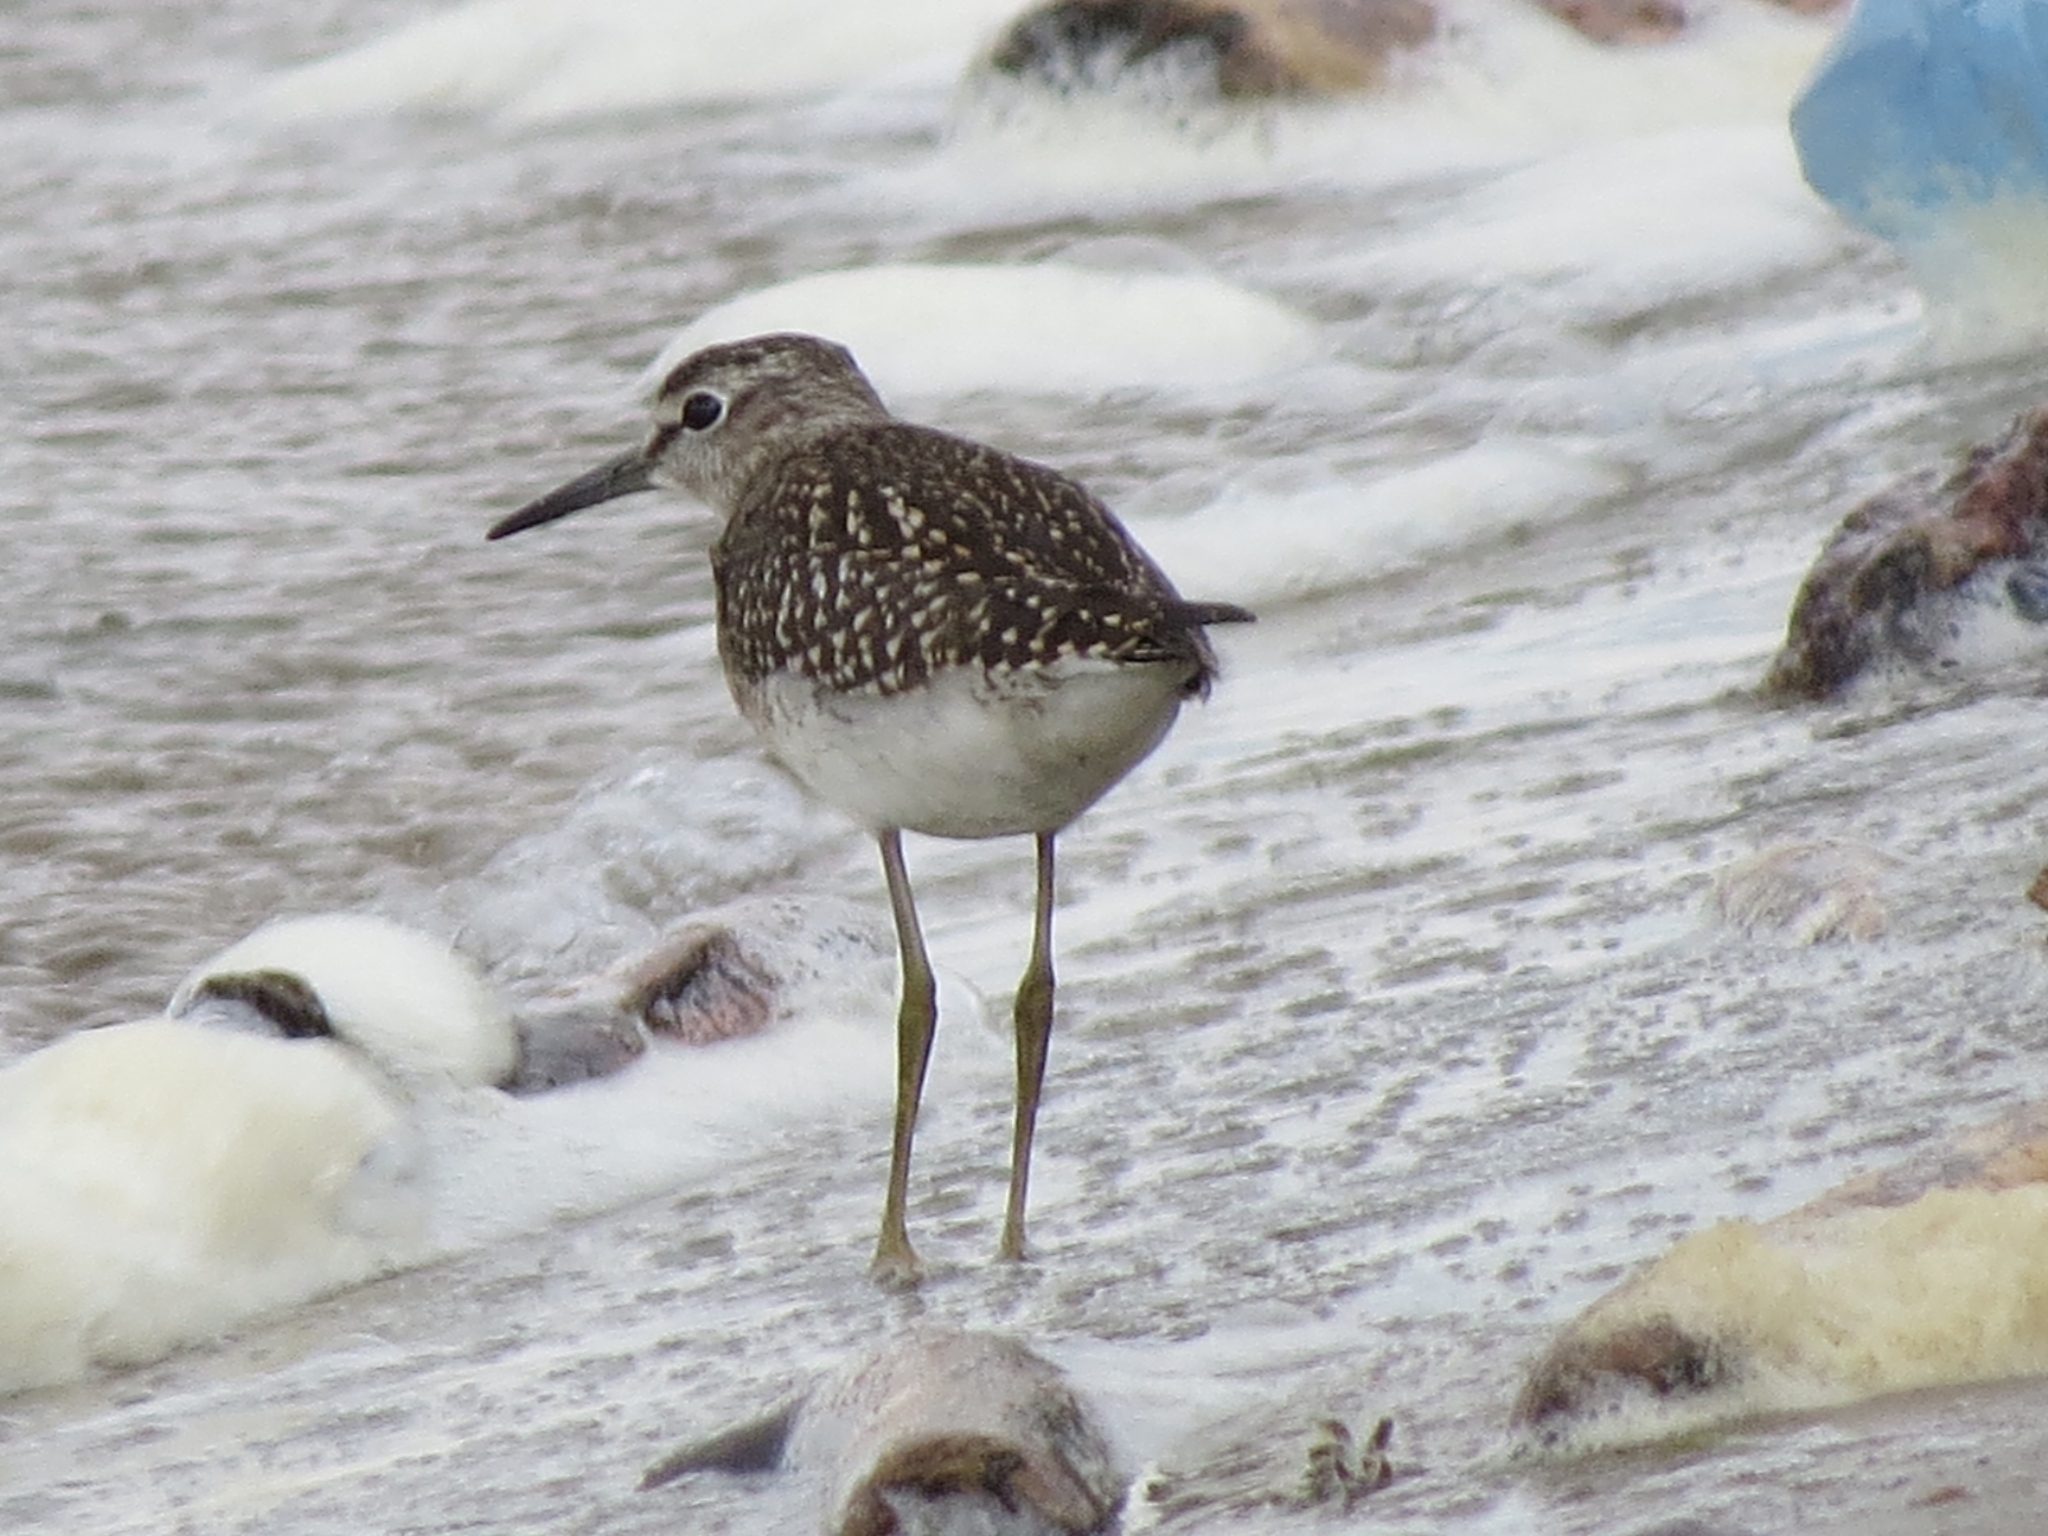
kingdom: Animalia
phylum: Chordata
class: Aves
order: Charadriiformes
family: Scolopacidae
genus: Tringa
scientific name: Tringa glareola
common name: Wood sandpiper
